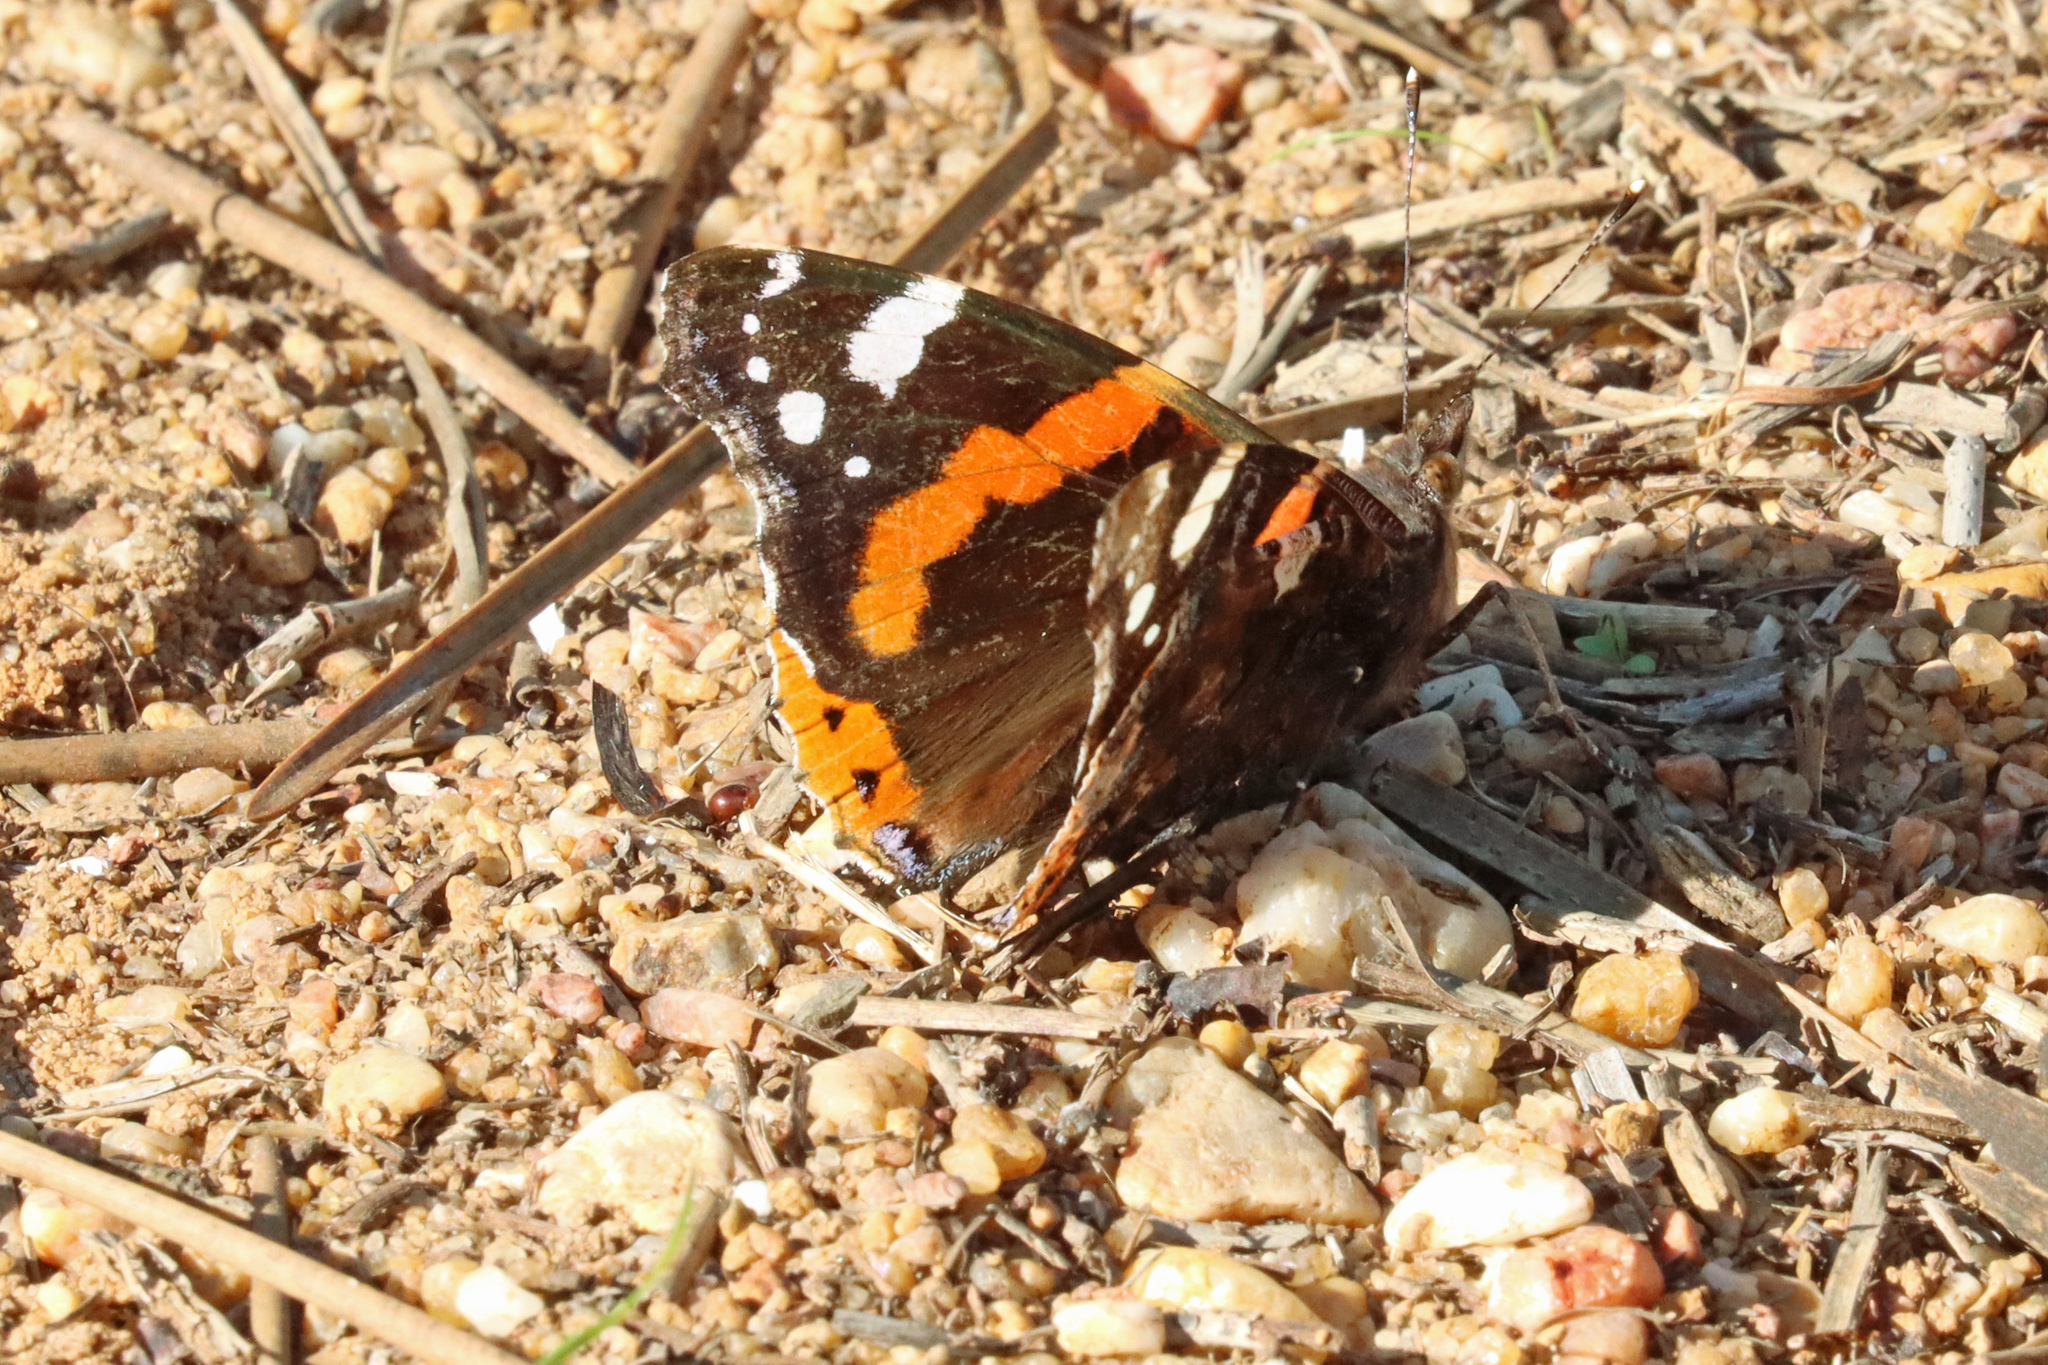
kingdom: Animalia
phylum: Arthropoda
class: Insecta
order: Lepidoptera
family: Nymphalidae
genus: Vanessa
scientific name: Vanessa atalanta
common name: Red admiral
